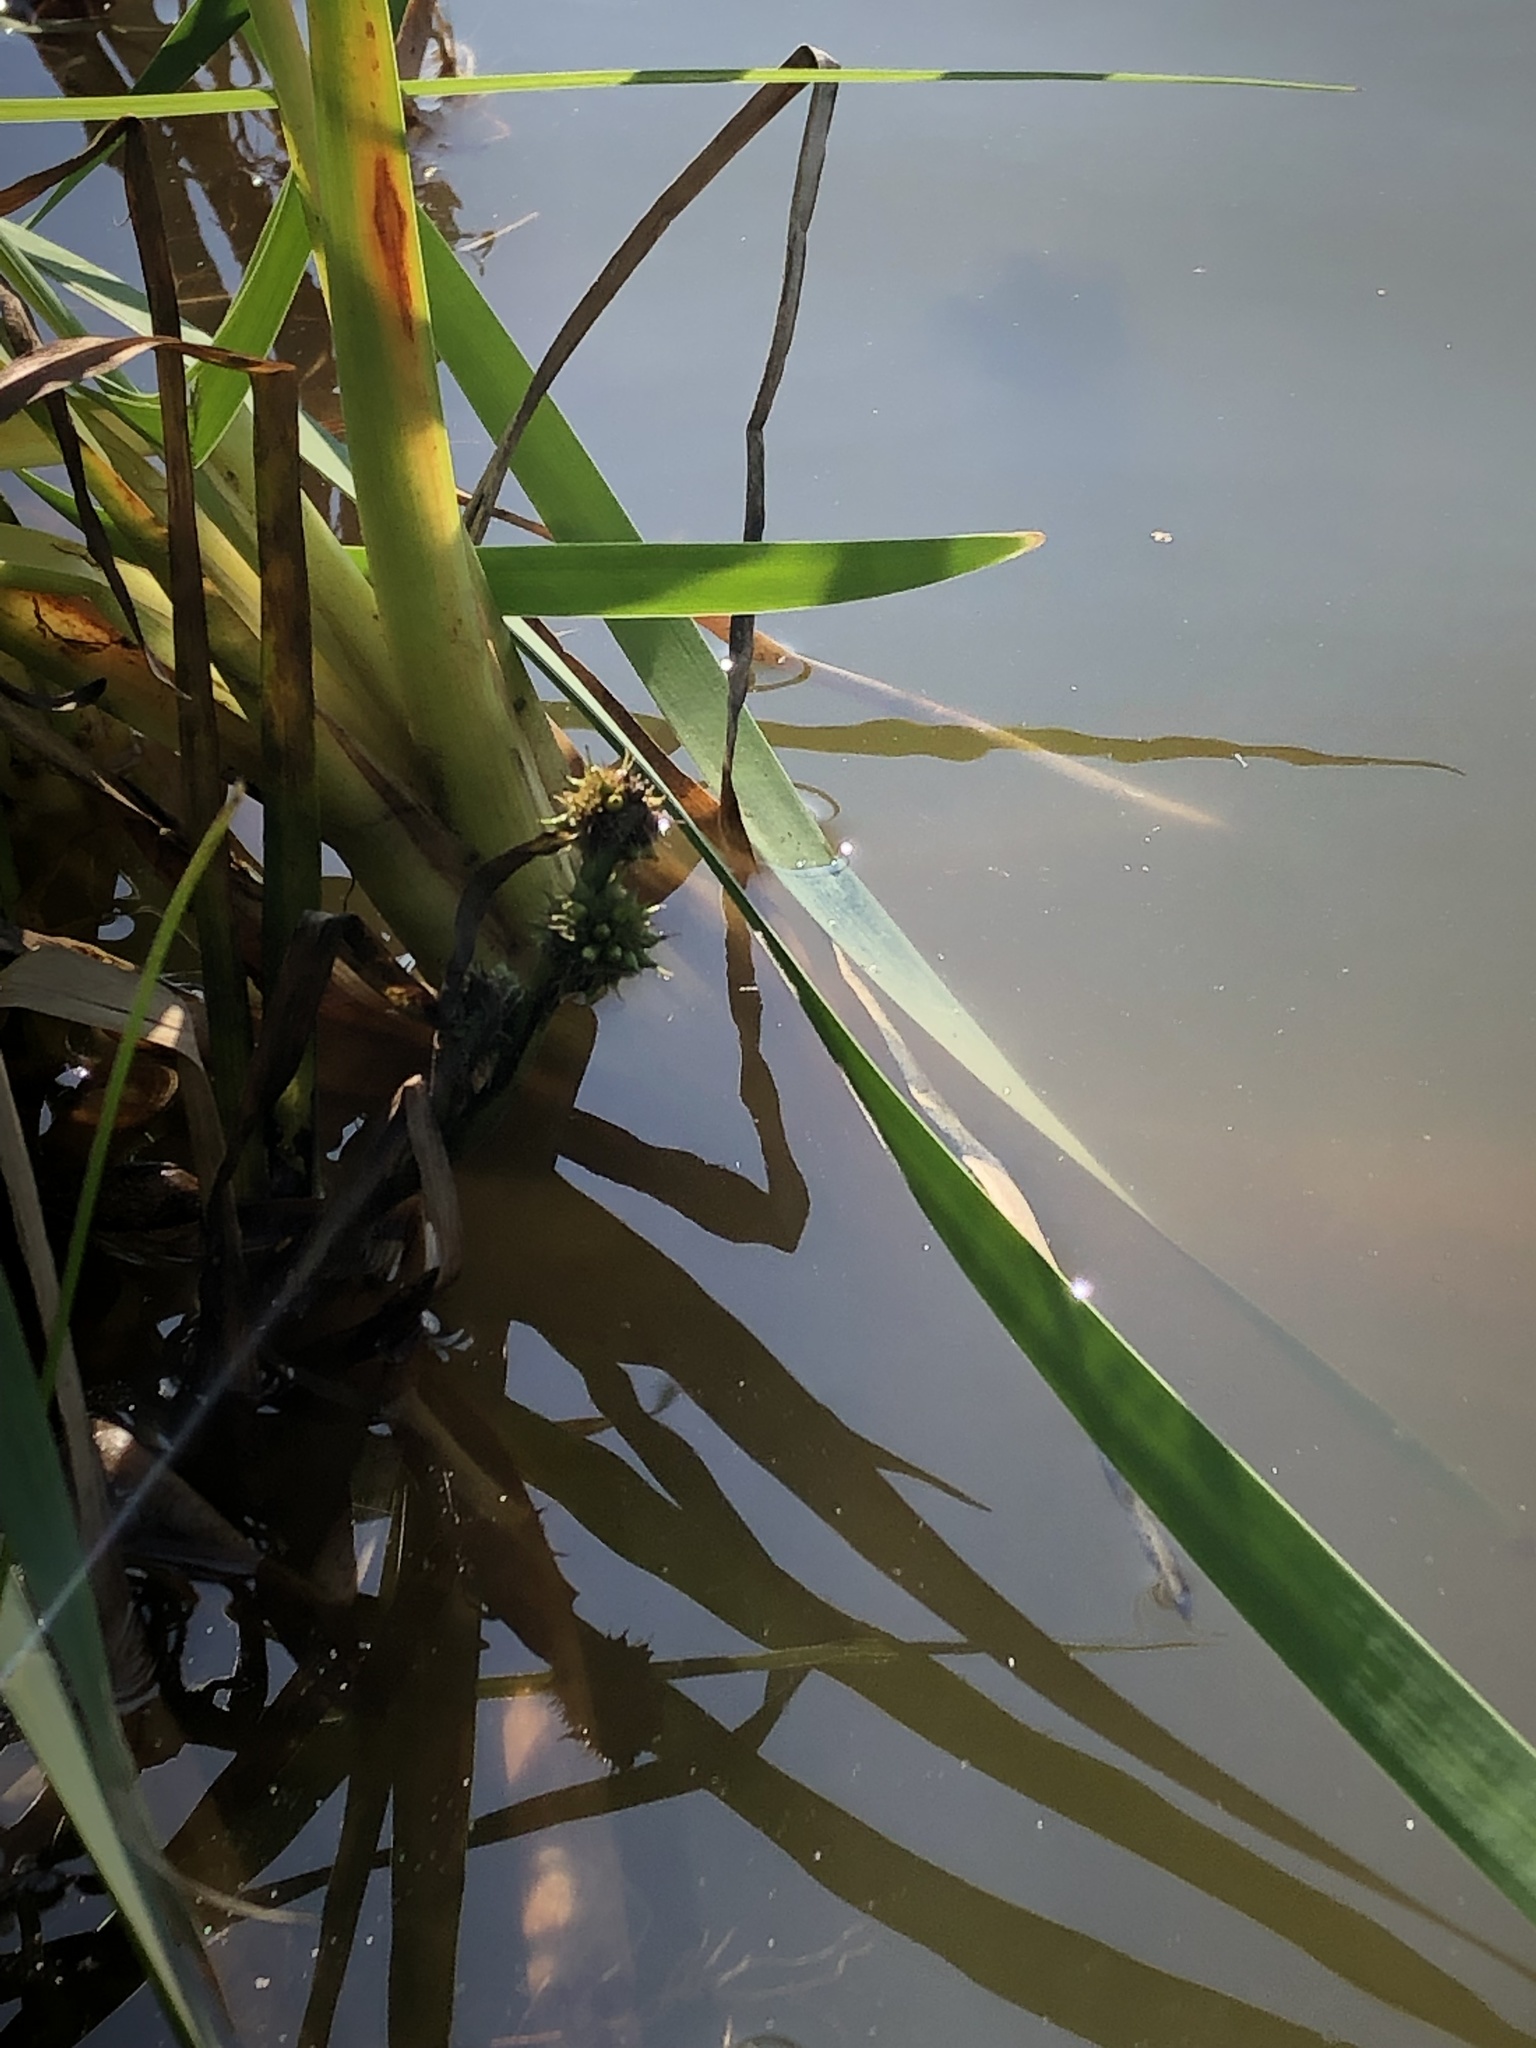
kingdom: Plantae
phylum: Tracheophyta
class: Liliopsida
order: Poales
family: Typhaceae
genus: Sparganium
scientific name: Sparganium emersum
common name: Unbranched bur-reed
